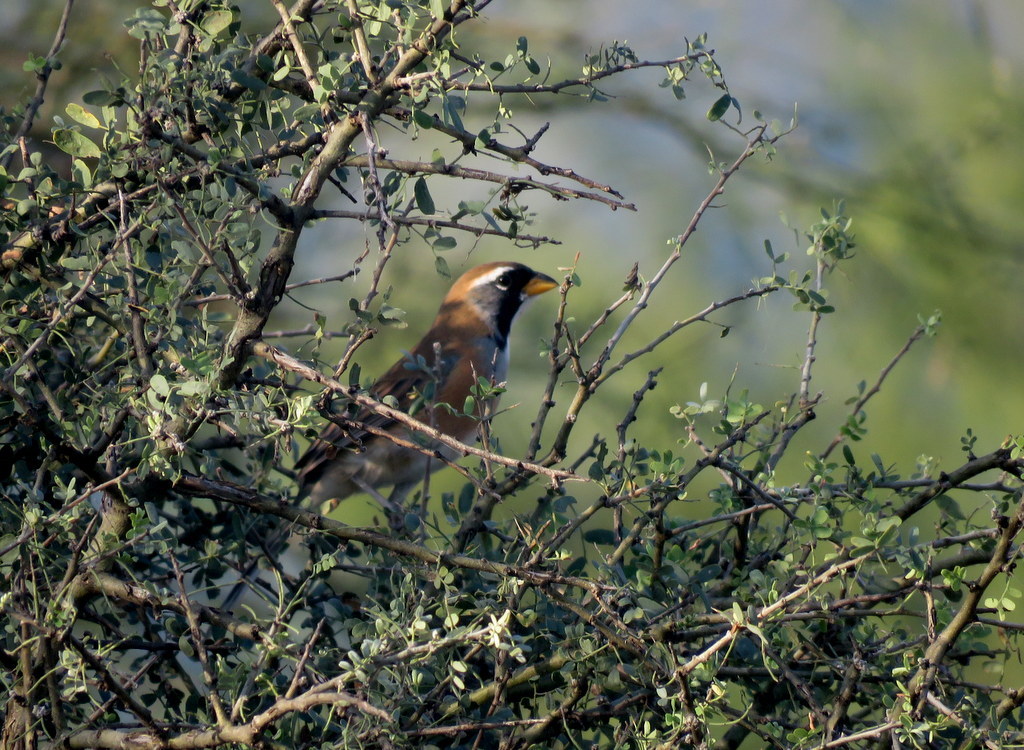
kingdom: Animalia
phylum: Chordata
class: Aves
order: Passeriformes
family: Thraupidae
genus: Saltatricula
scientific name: Saltatricula multicolor
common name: Many-colored chaco finch
